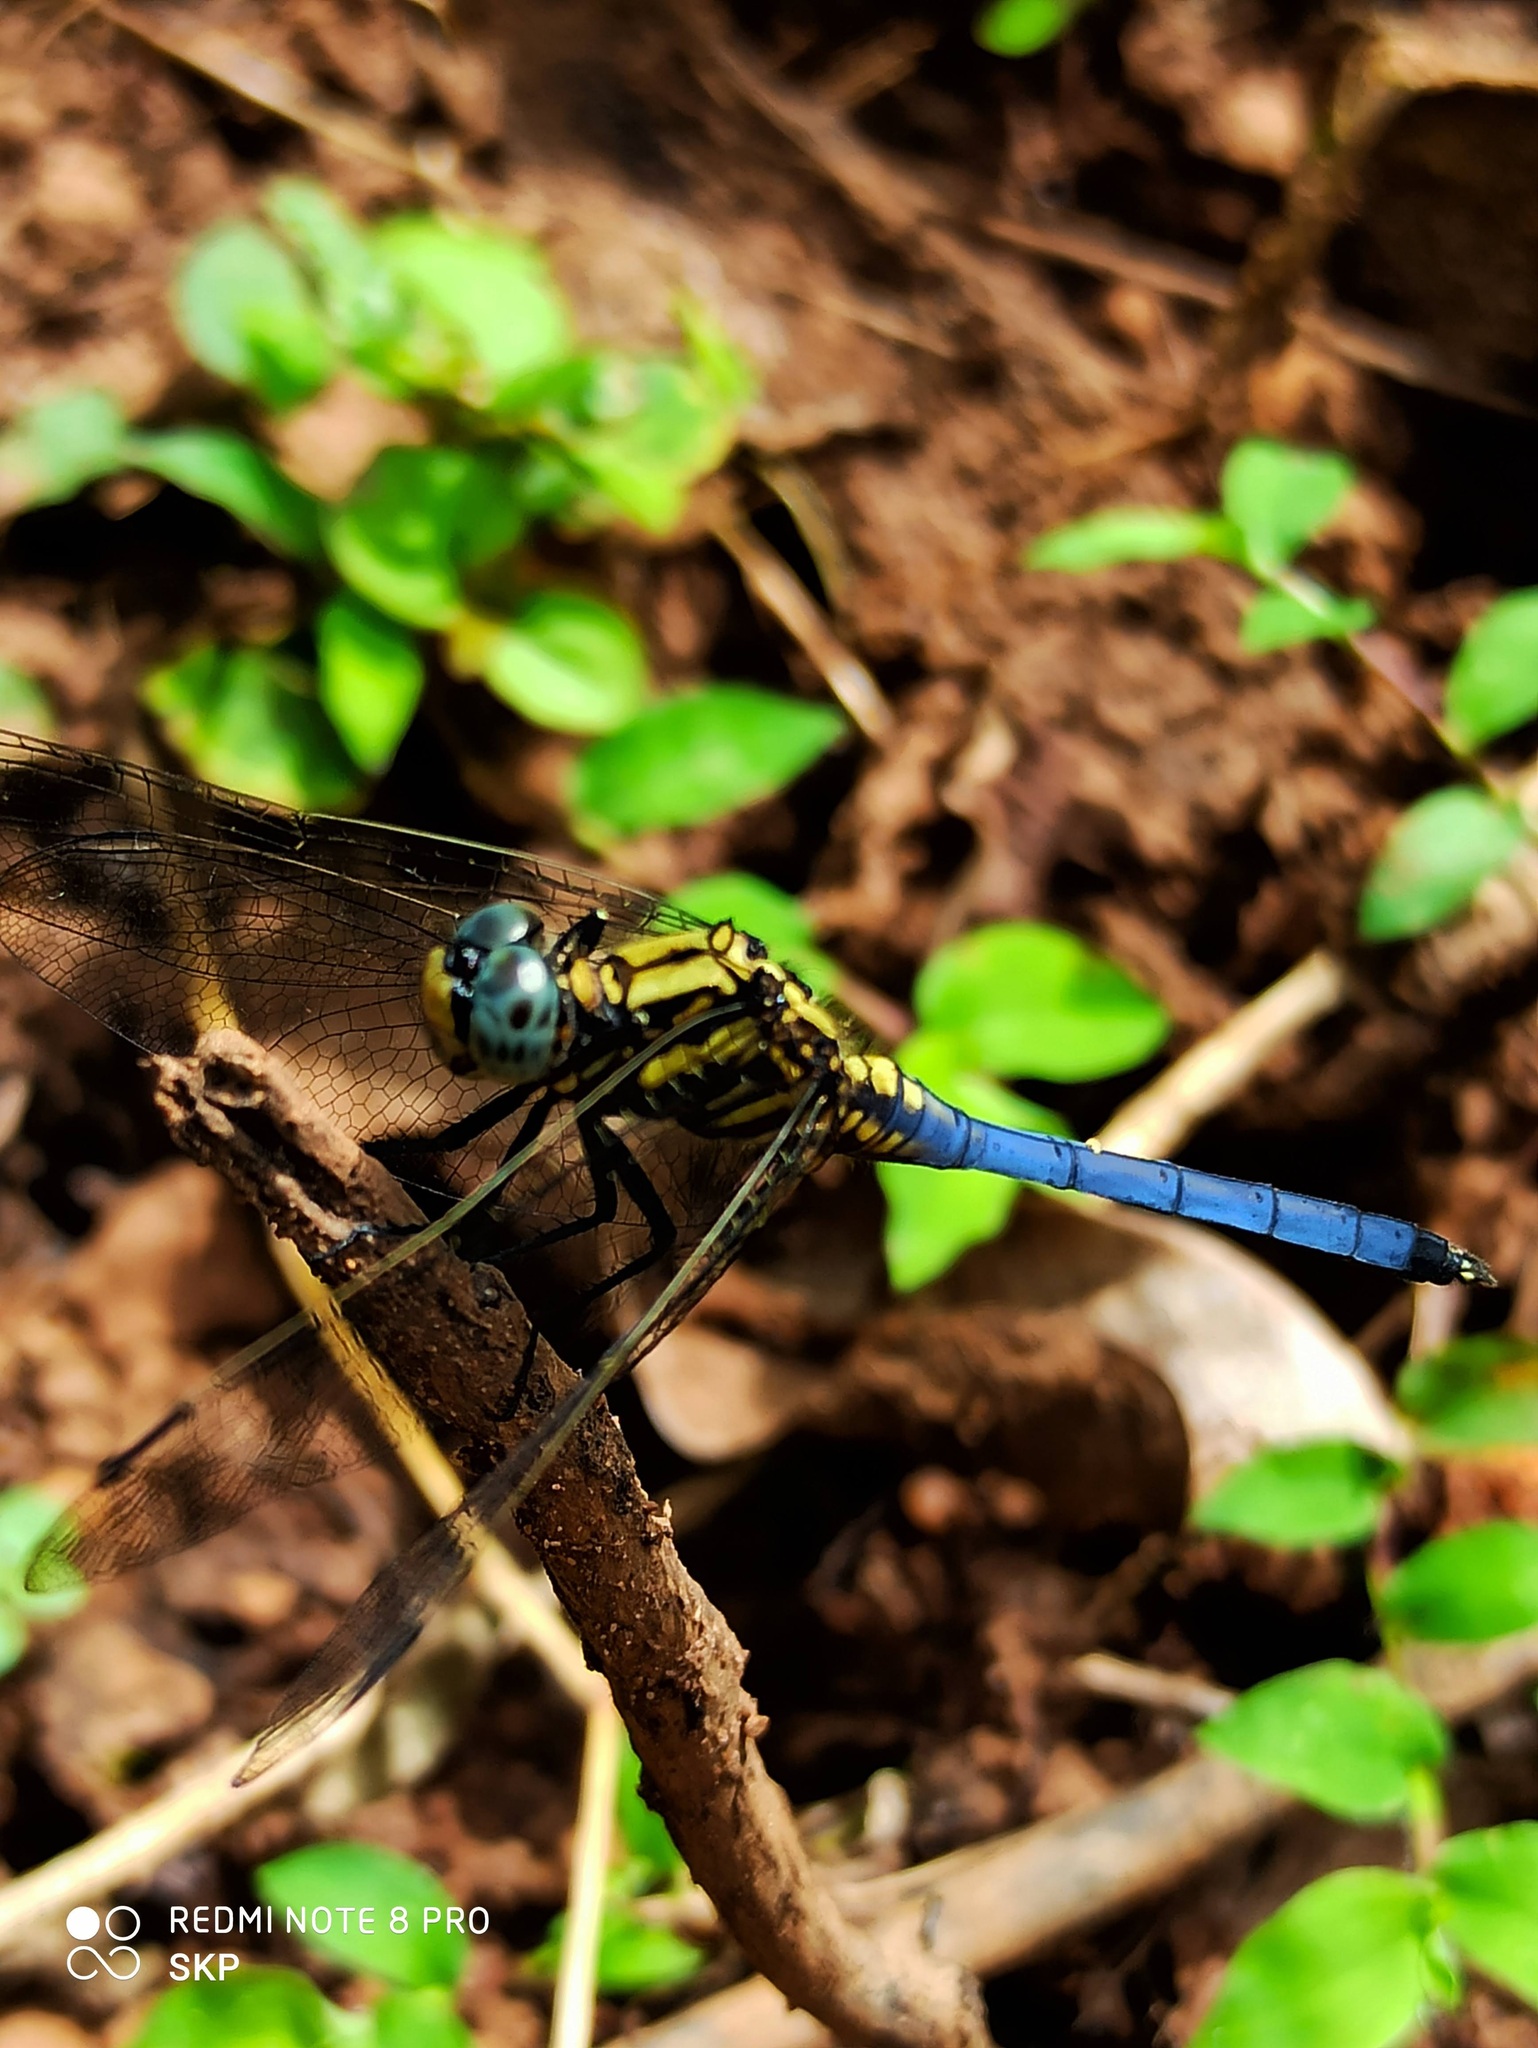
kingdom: Animalia
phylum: Arthropoda
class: Insecta
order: Odonata
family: Libellulidae
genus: Orthetrum
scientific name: Orthetrum luzonicum
